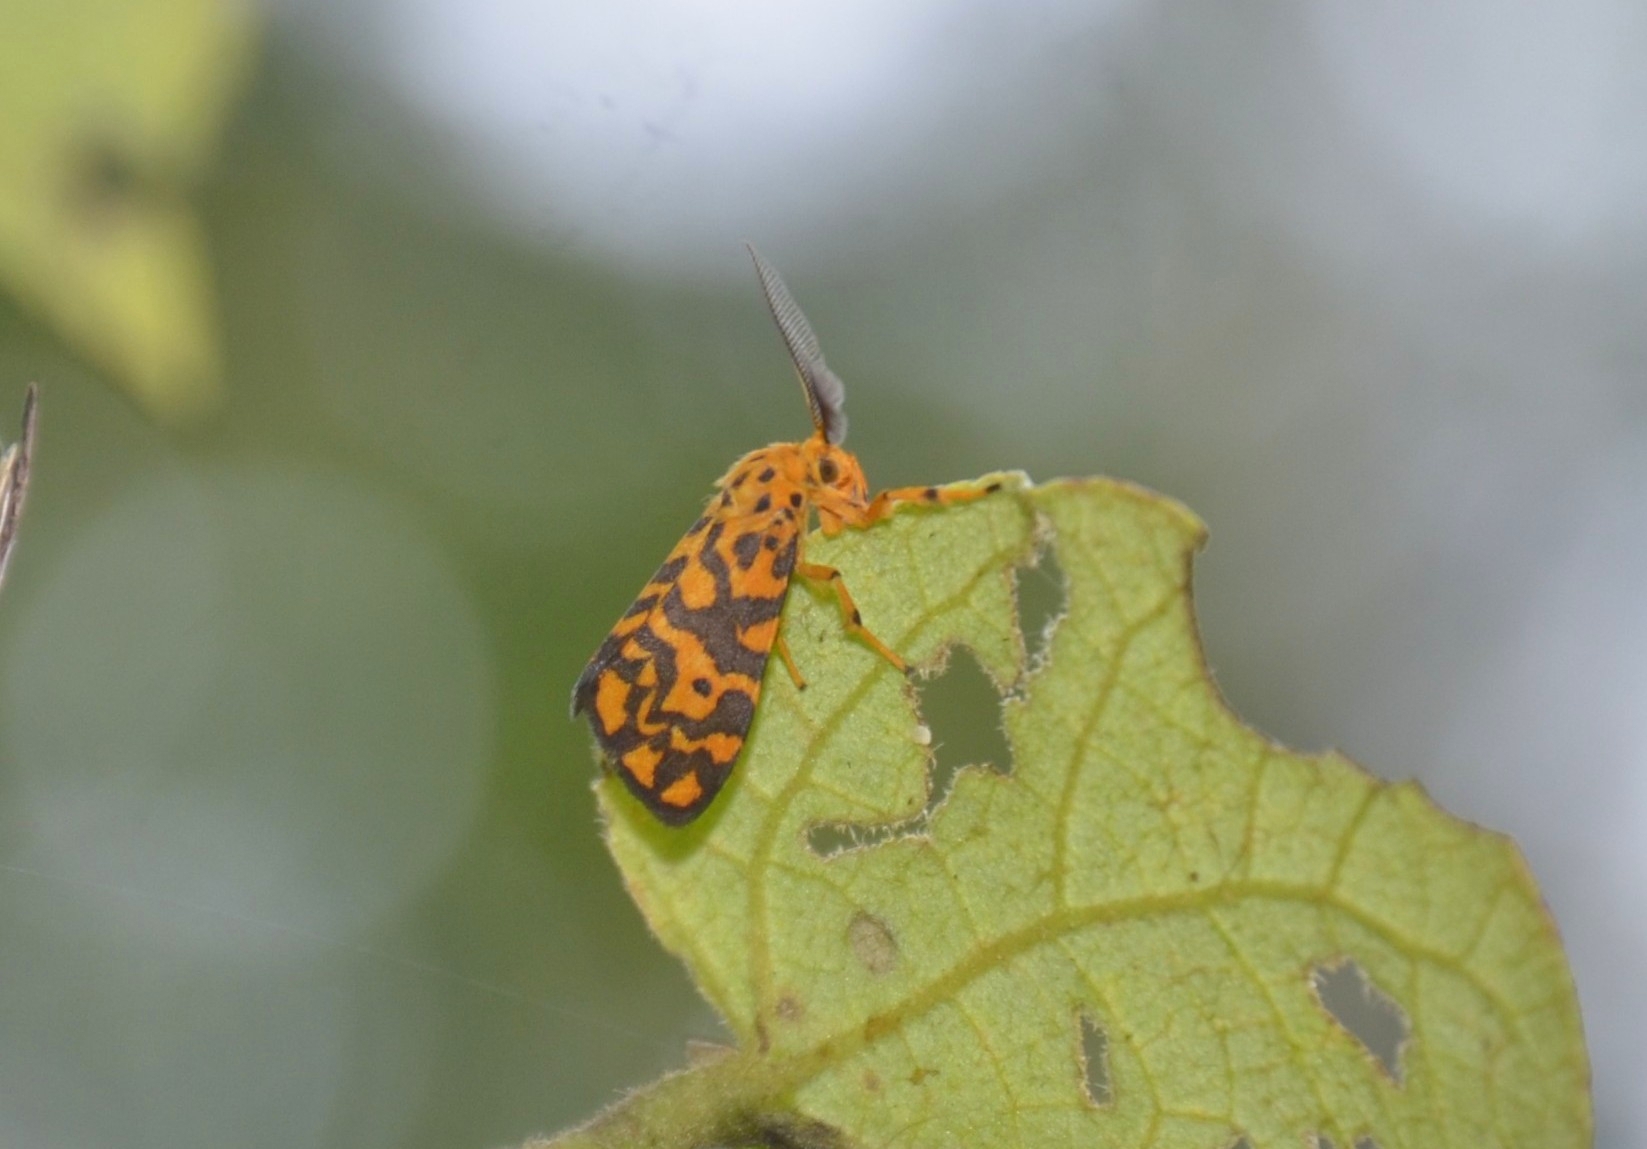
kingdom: Animalia
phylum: Arthropoda
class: Insecta
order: Lepidoptera
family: Erebidae
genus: Nepita
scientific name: Nepita conferta
